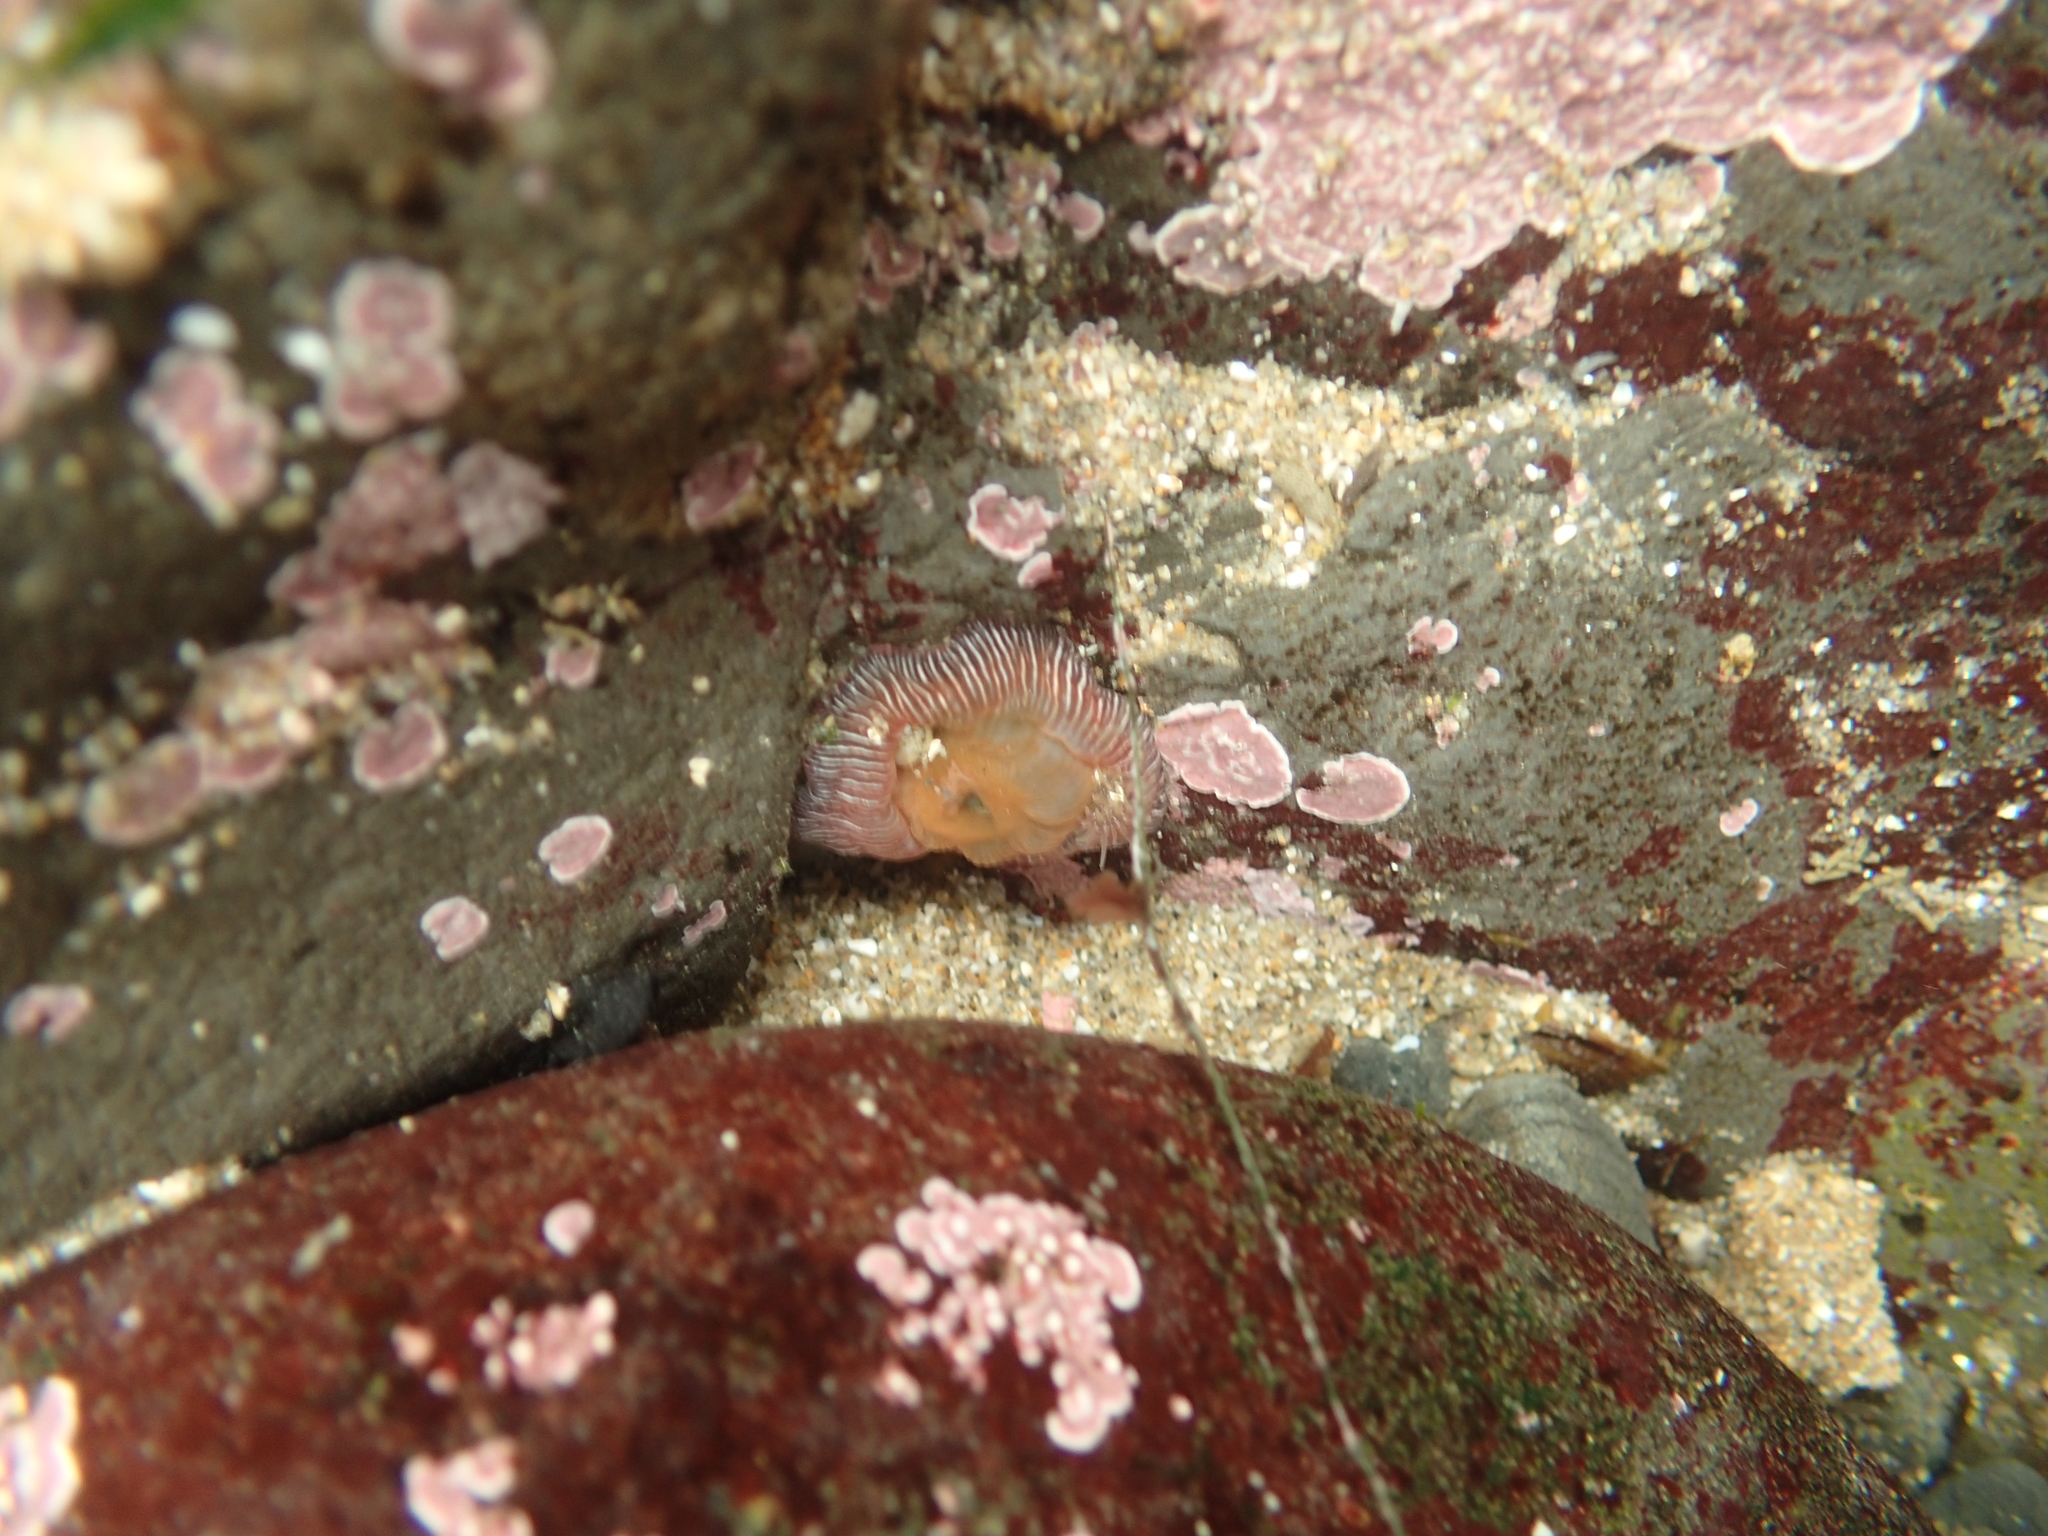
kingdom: Animalia
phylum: Cnidaria
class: Anthozoa
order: Actiniaria
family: Actiniidae
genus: Epiactis
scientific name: Epiactis prolifera
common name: Brooding anemone
